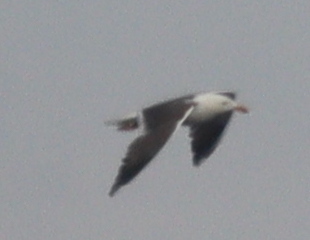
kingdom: Animalia
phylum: Chordata
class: Aves
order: Charadriiformes
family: Laridae
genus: Larus
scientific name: Larus fuscus
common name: Lesser black-backed gull
